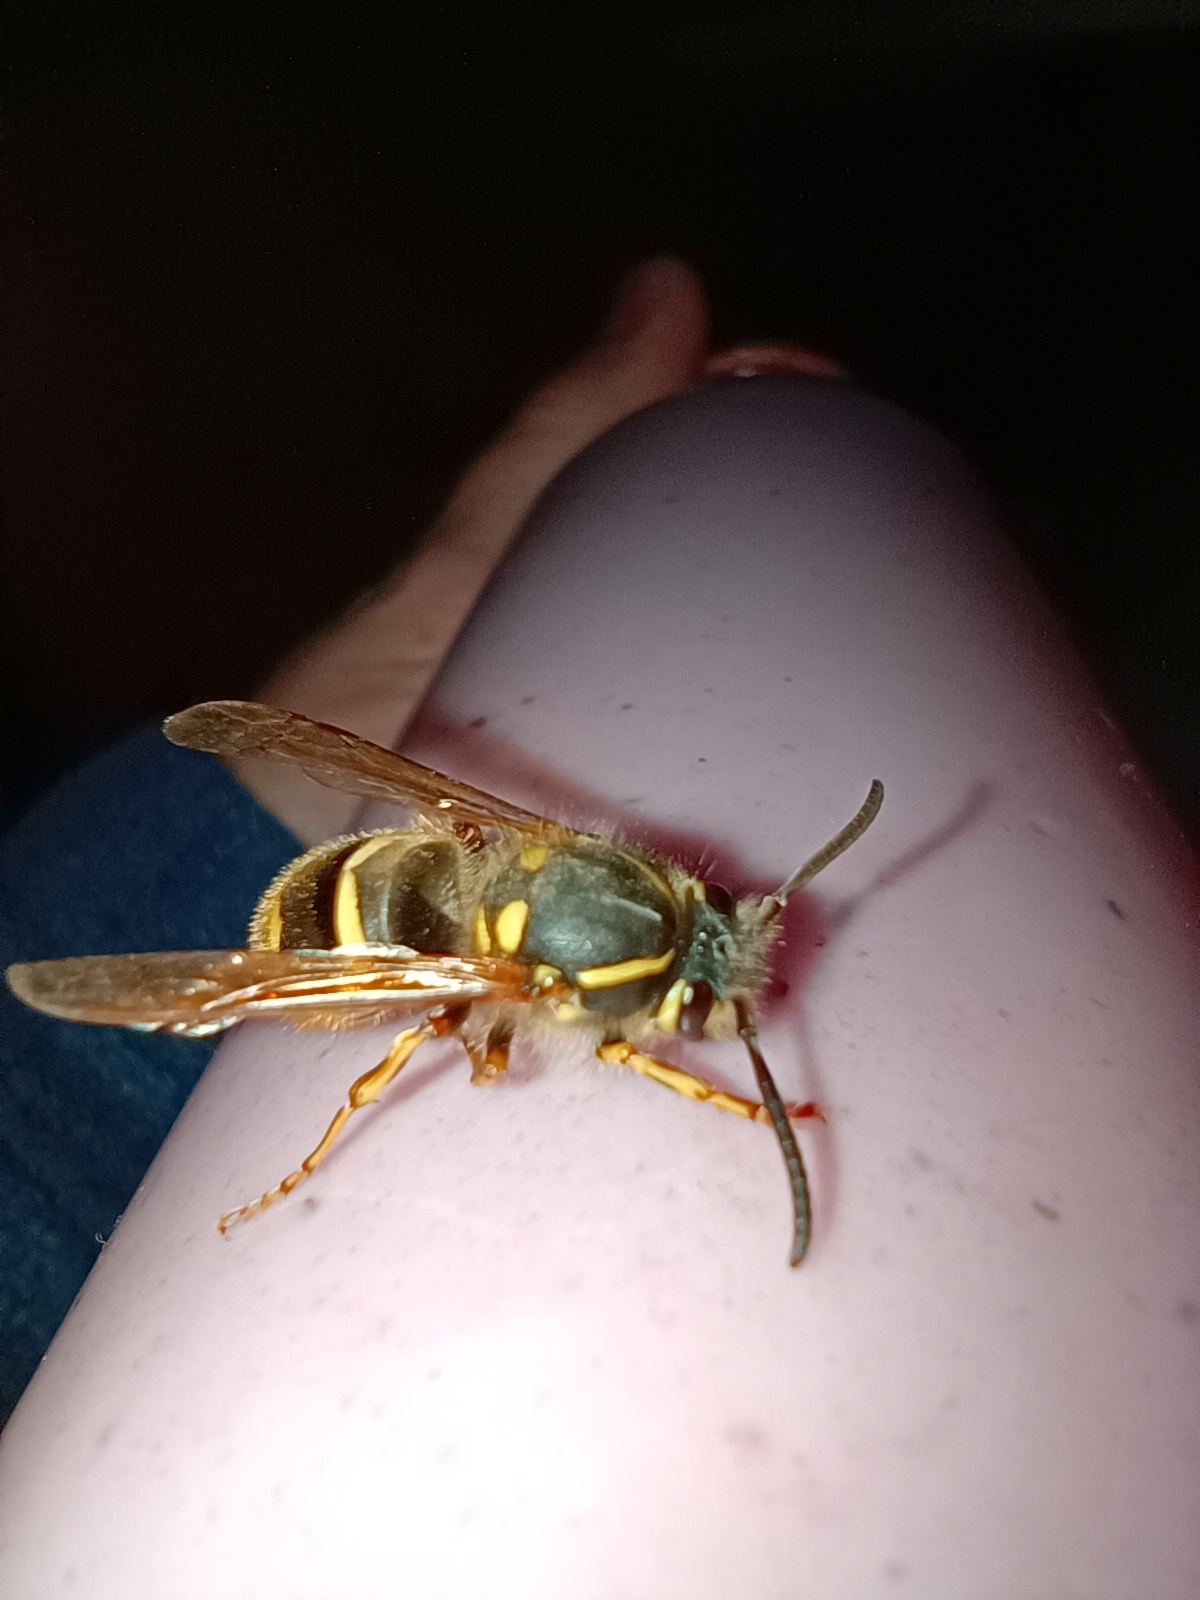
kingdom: Animalia
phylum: Arthropoda
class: Insecta
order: Hymenoptera
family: Vespidae
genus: Vespula
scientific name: Vespula vulgaris
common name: Common wasp
